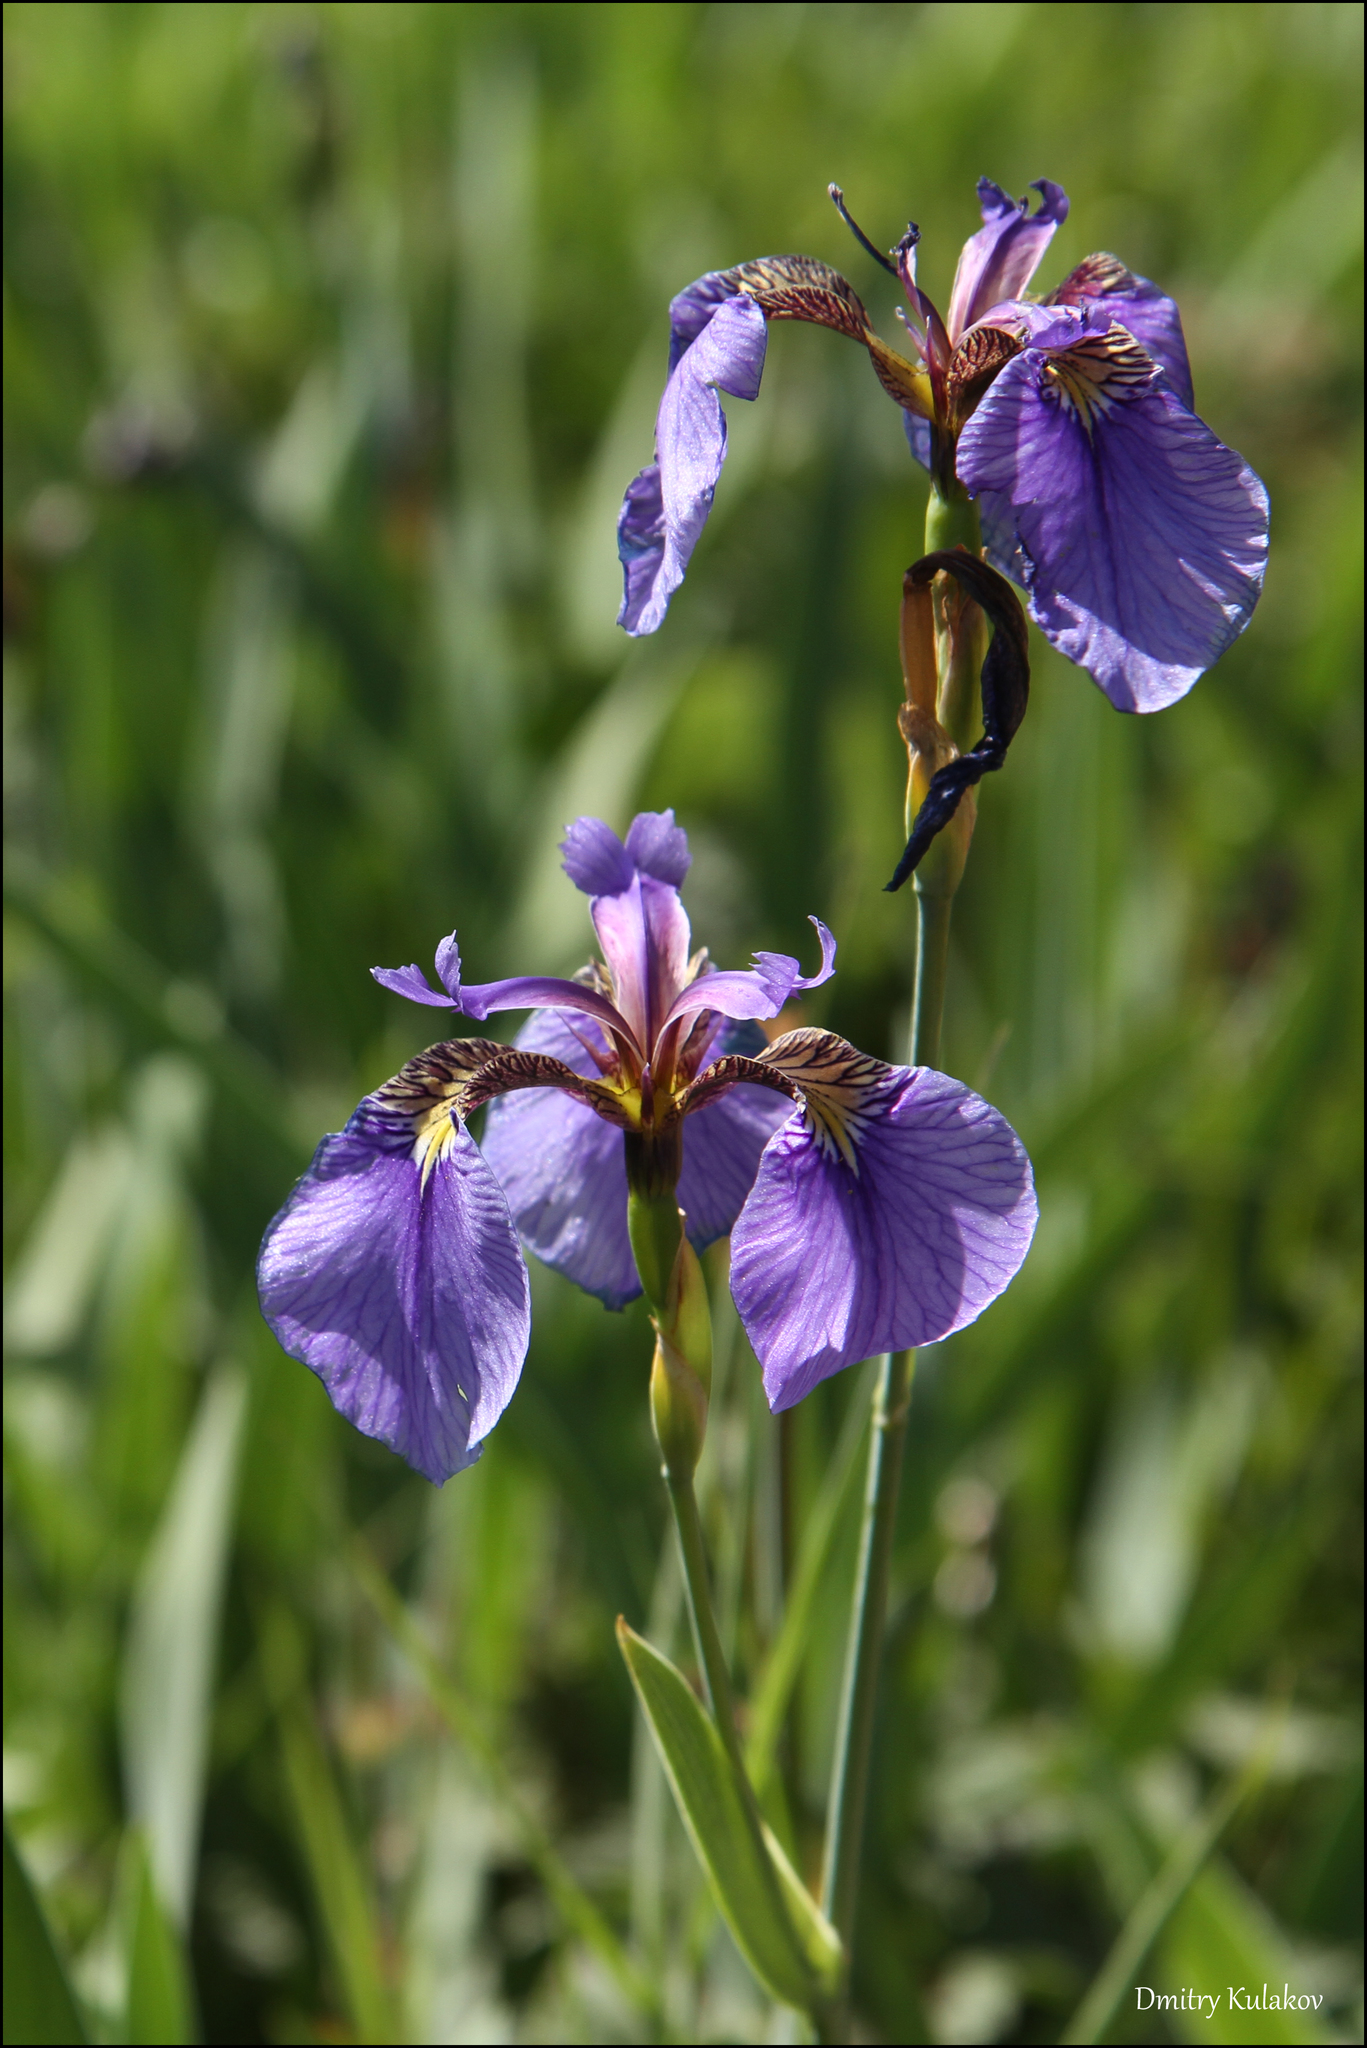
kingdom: Plantae
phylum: Tracheophyta
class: Liliopsida
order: Asparagales
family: Iridaceae
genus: Iris
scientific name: Iris setosa
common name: Arctic blue flag
